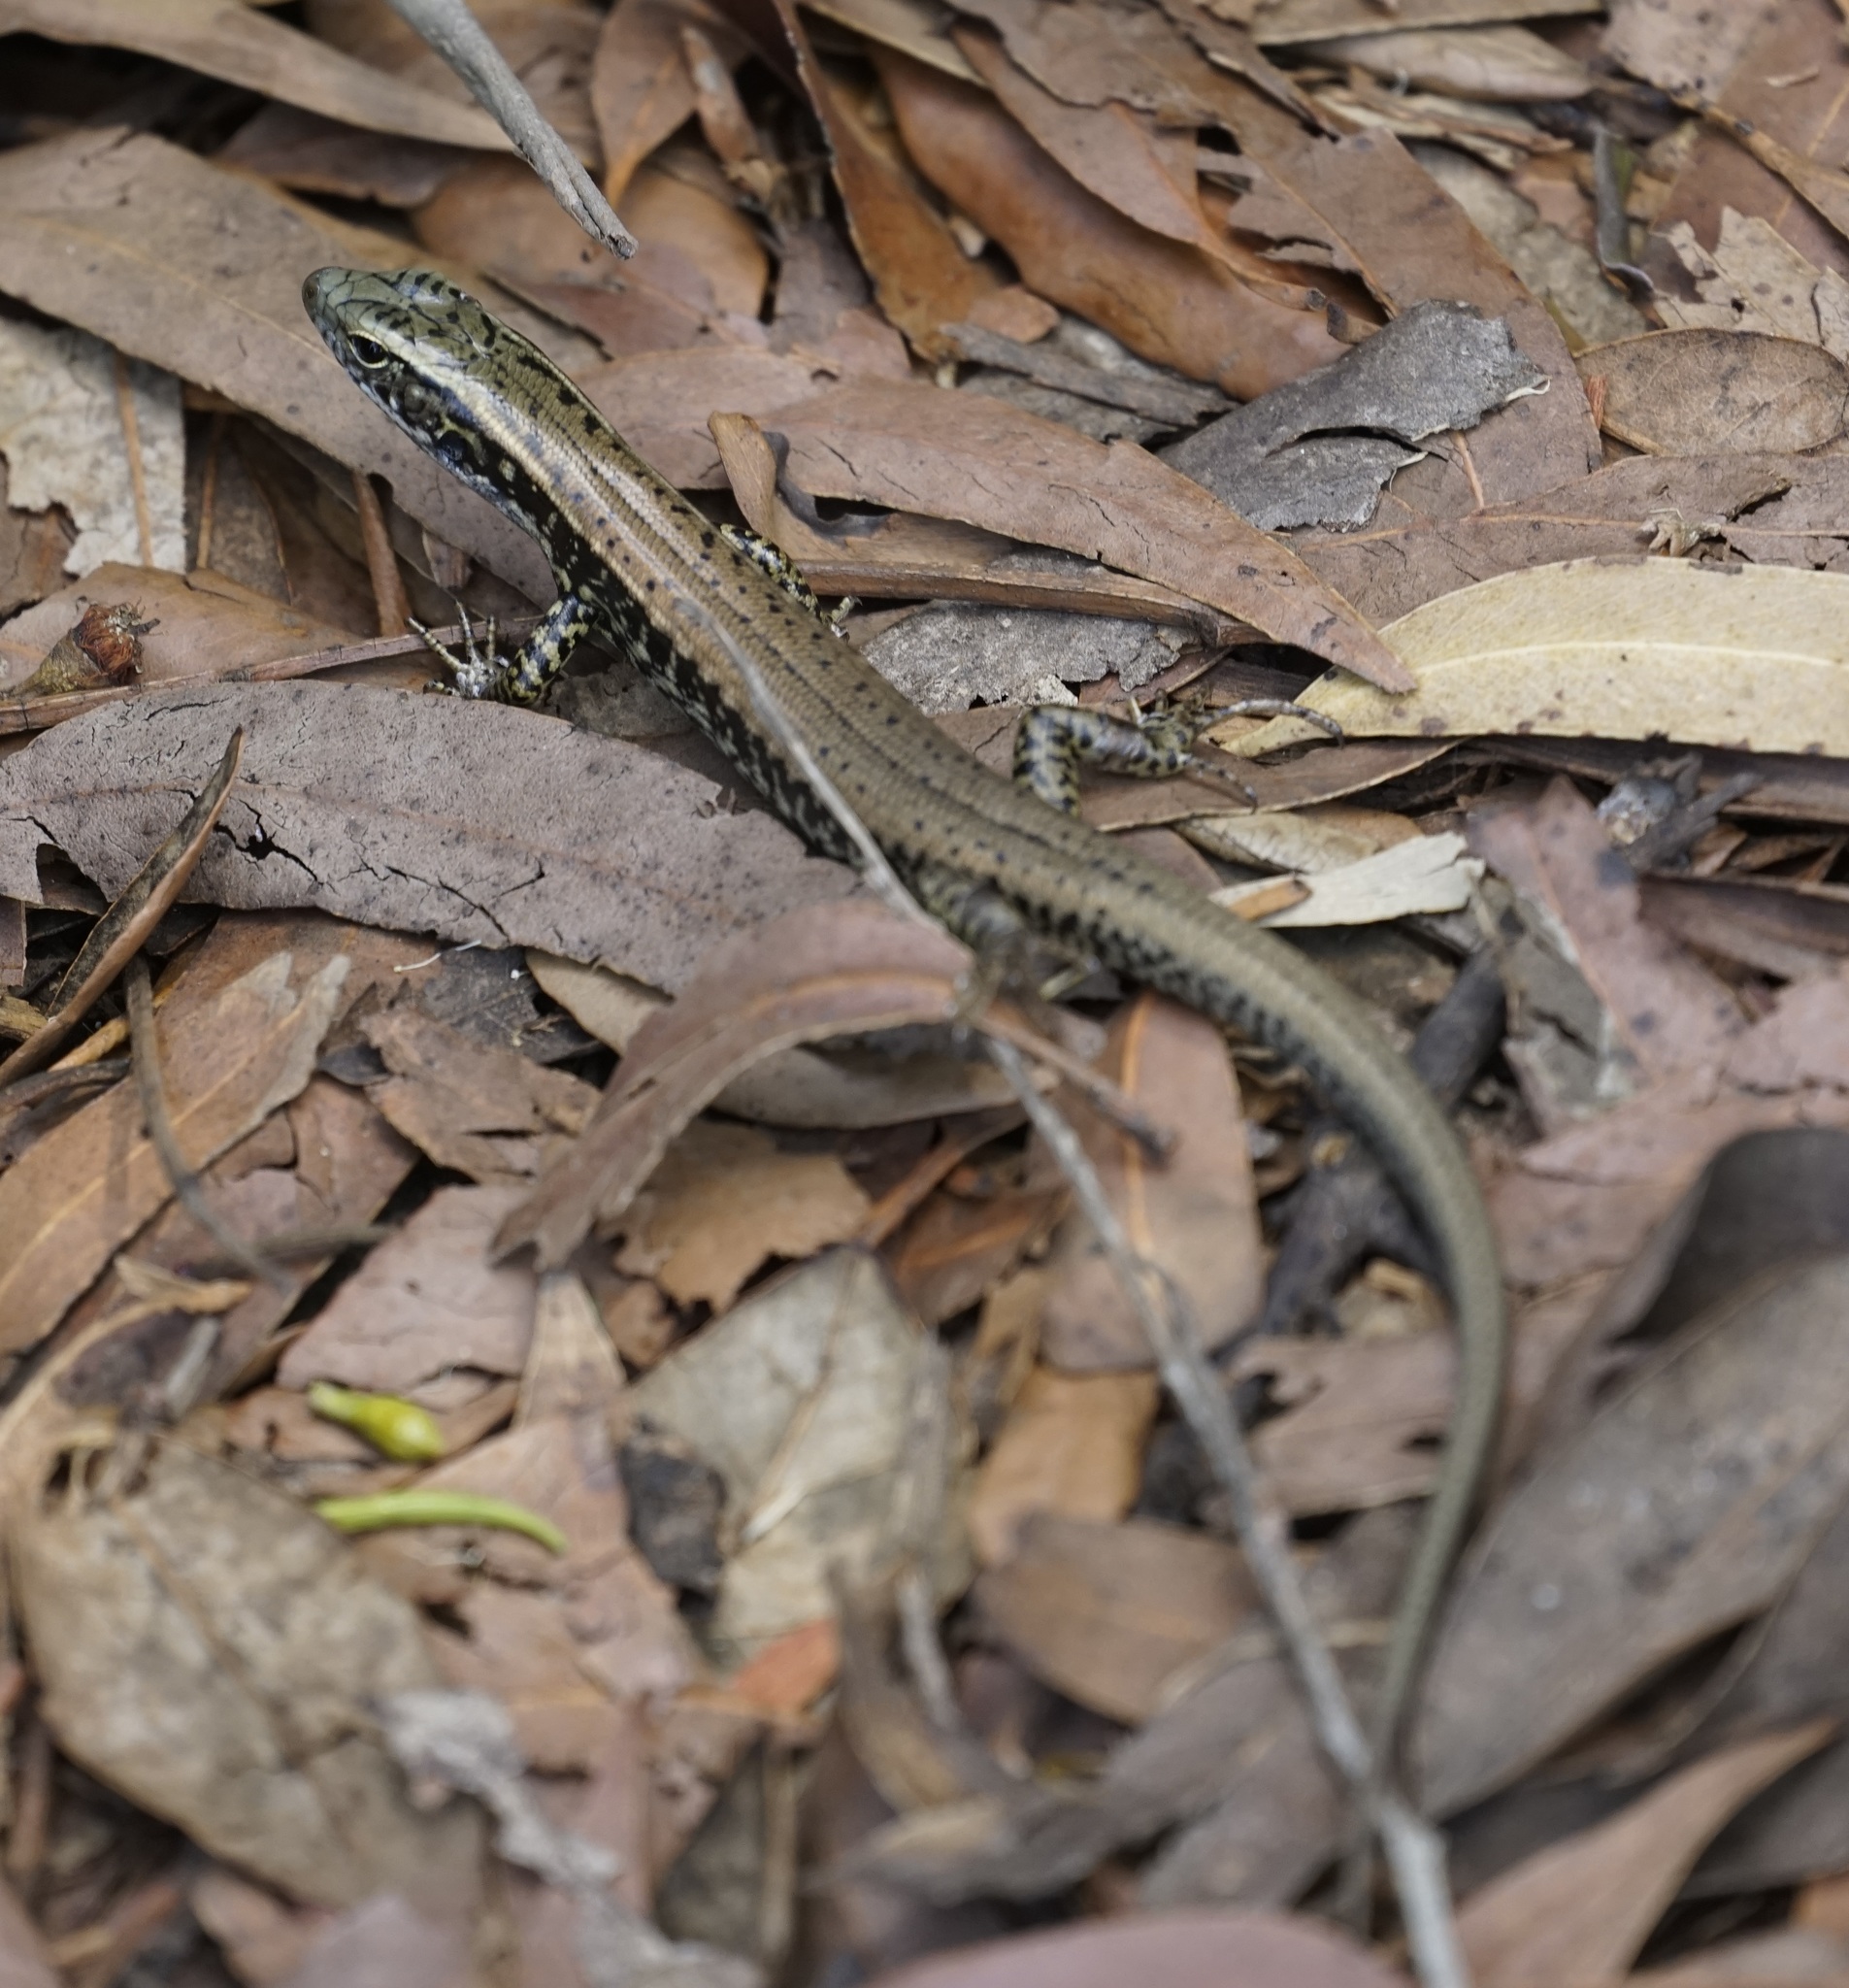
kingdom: Animalia
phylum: Chordata
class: Squamata
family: Scincidae
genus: Eulamprus
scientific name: Eulamprus quoyii
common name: Eastern water skink
